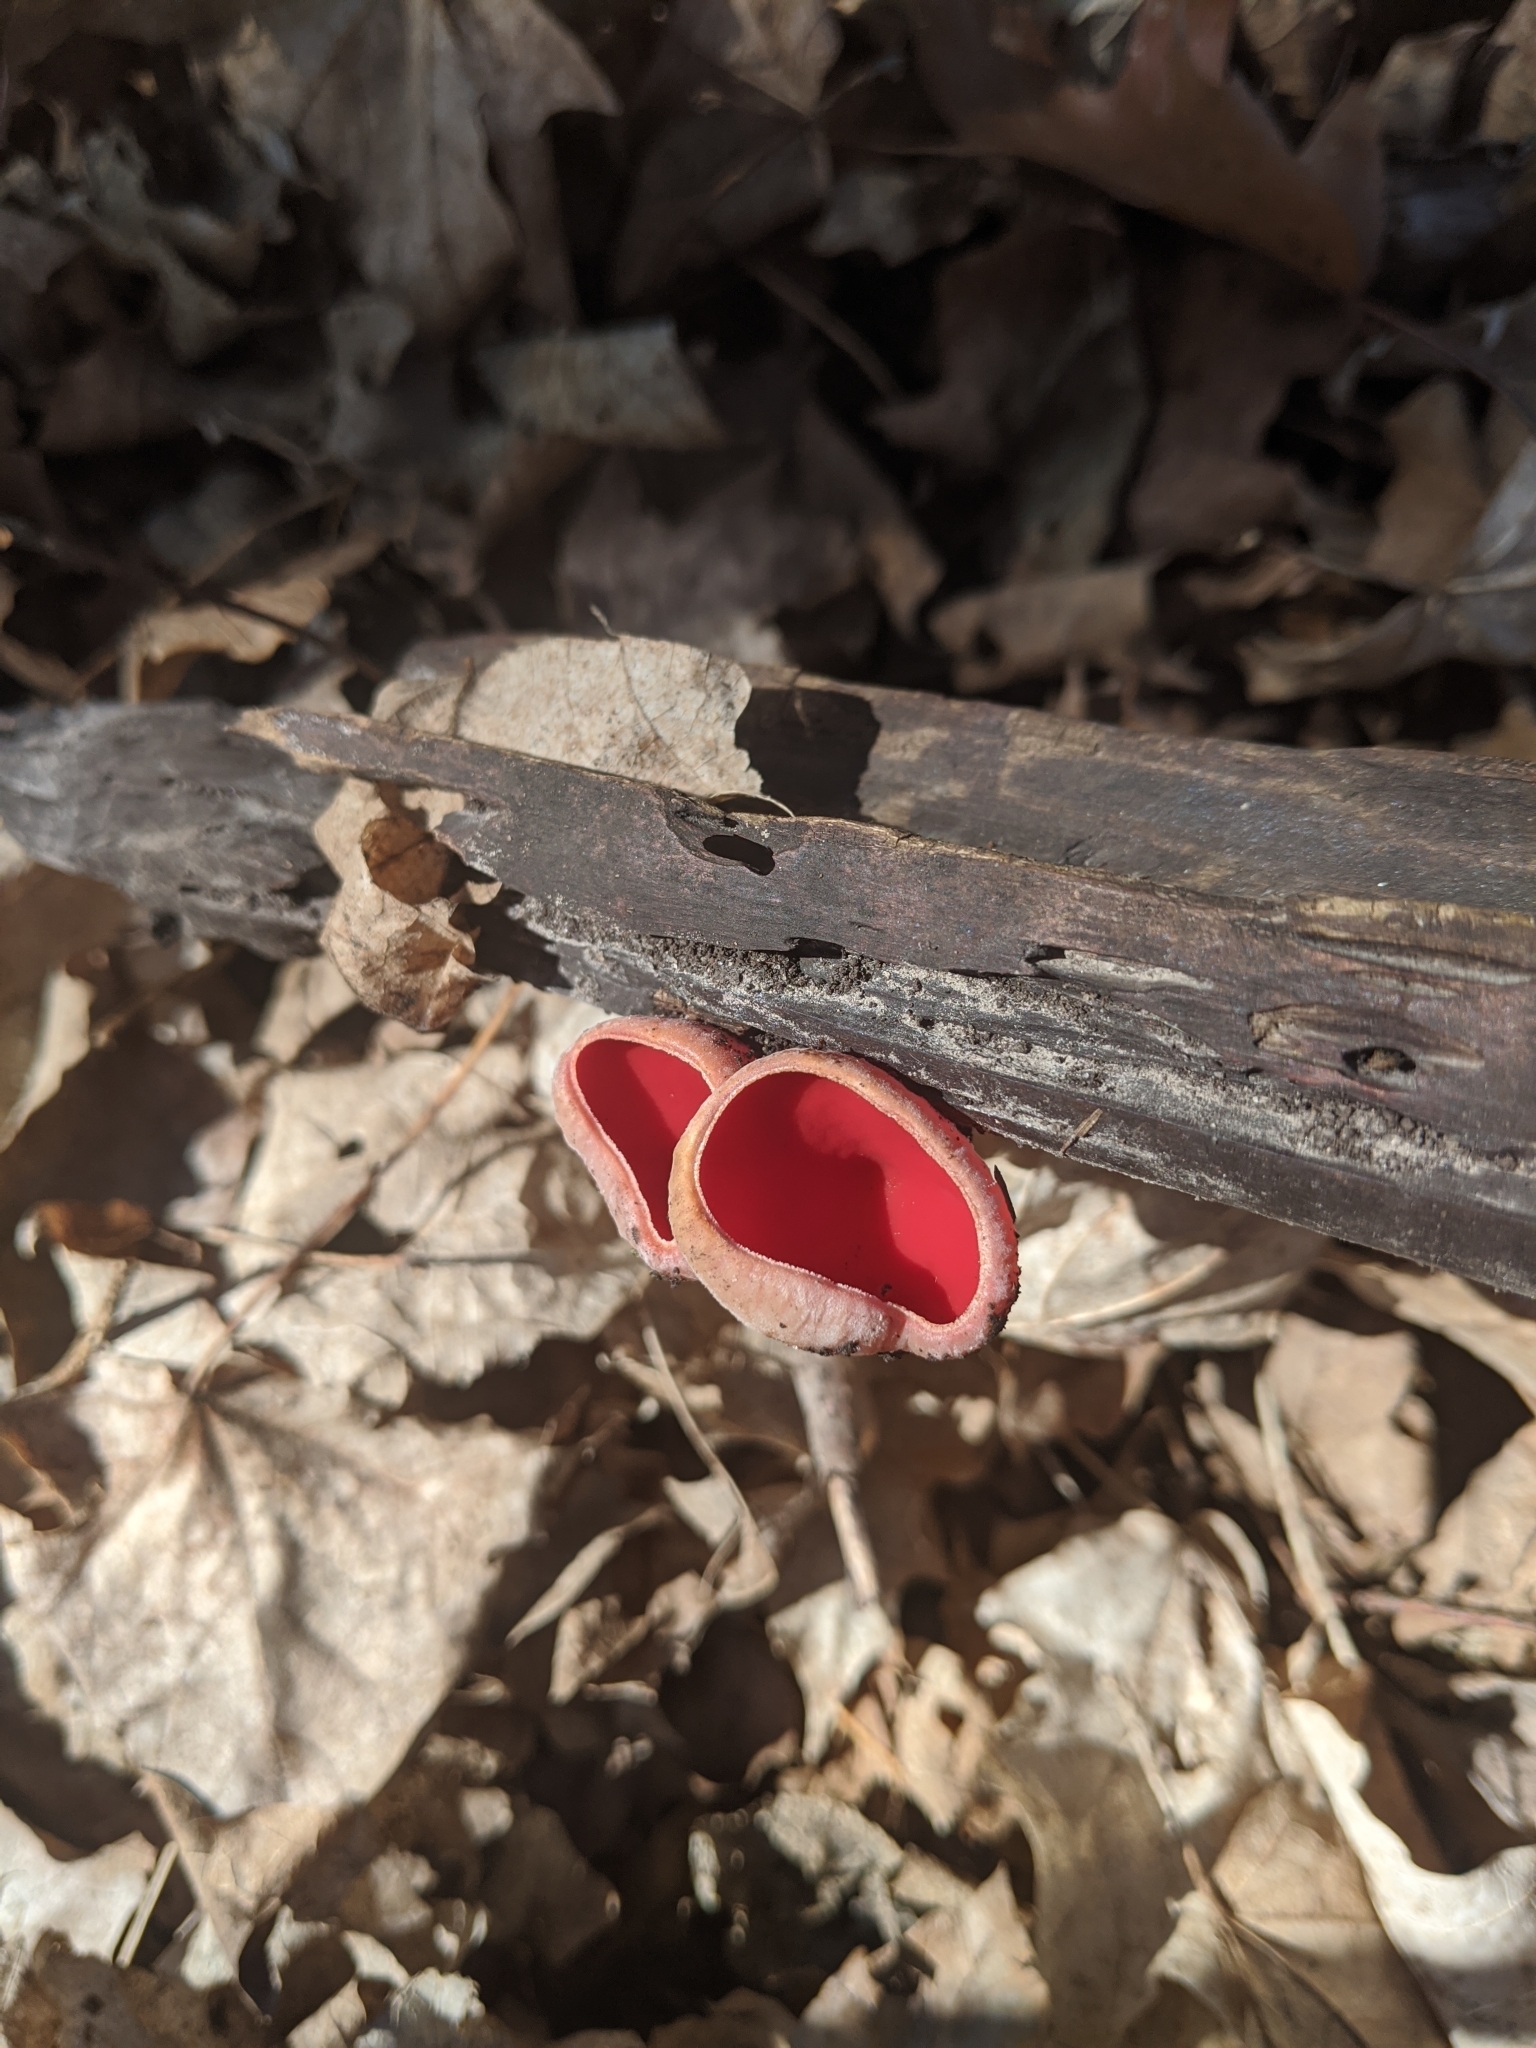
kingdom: Fungi
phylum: Ascomycota
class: Pezizomycetes
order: Pezizales
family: Sarcoscyphaceae
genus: Sarcoscypha
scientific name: Sarcoscypha austriaca
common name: Scarlet elfcup
